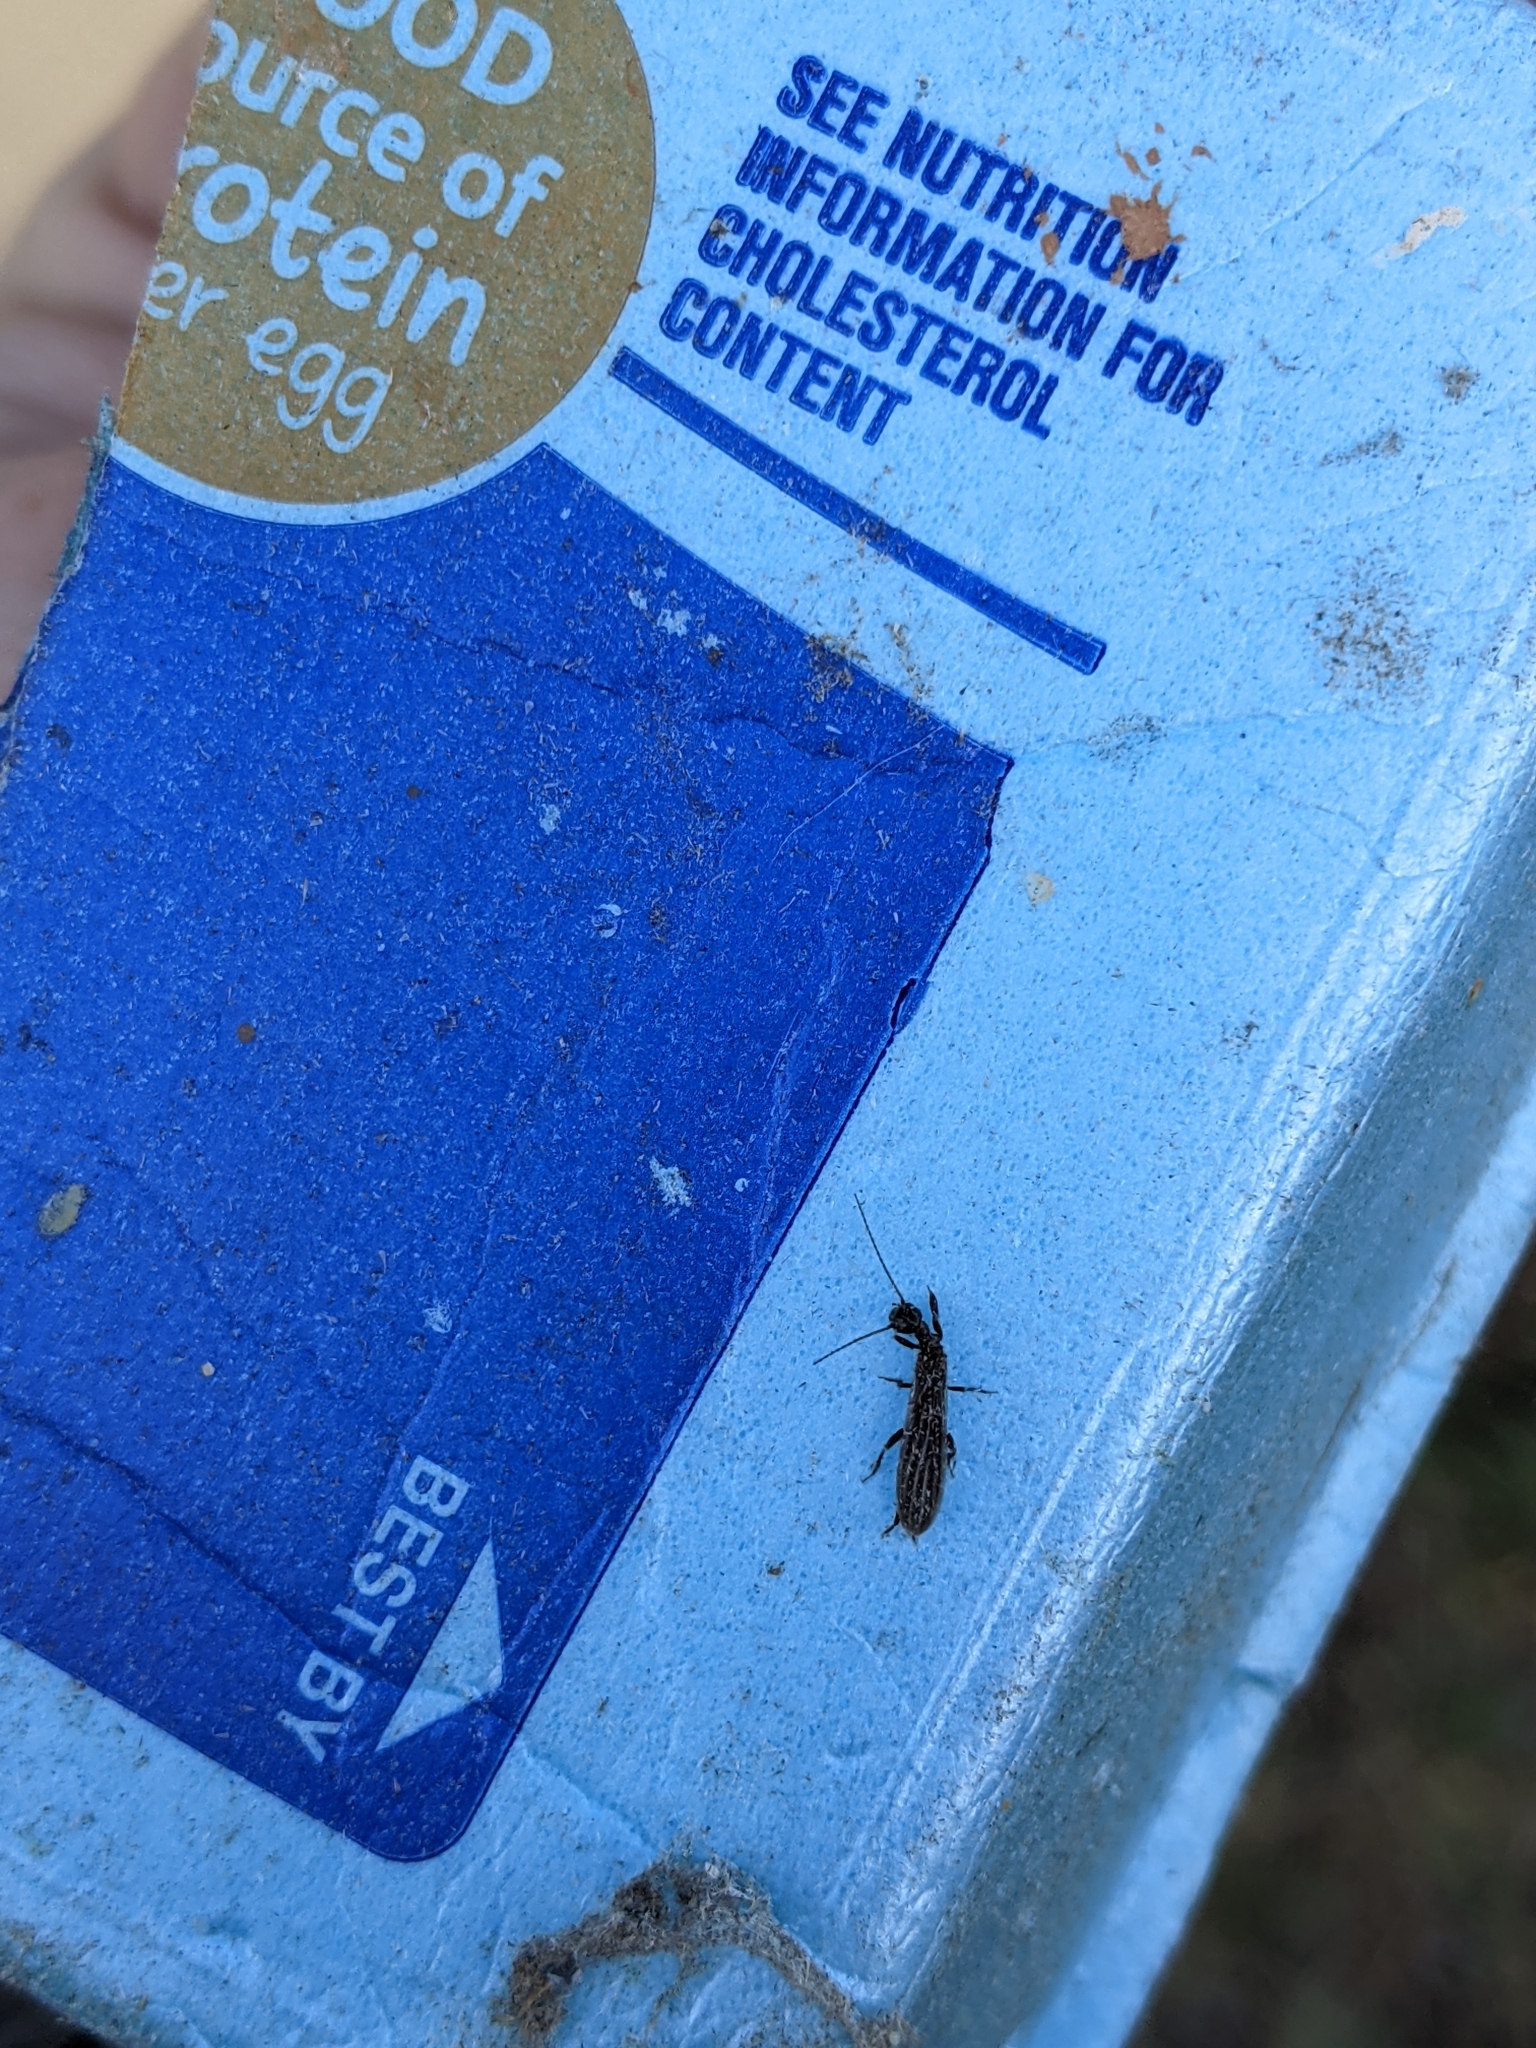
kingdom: Animalia
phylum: Arthropoda
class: Insecta
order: Embioptera
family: Oligotomidae
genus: Oligotoma
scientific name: Oligotoma nigra
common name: Black webspinner
